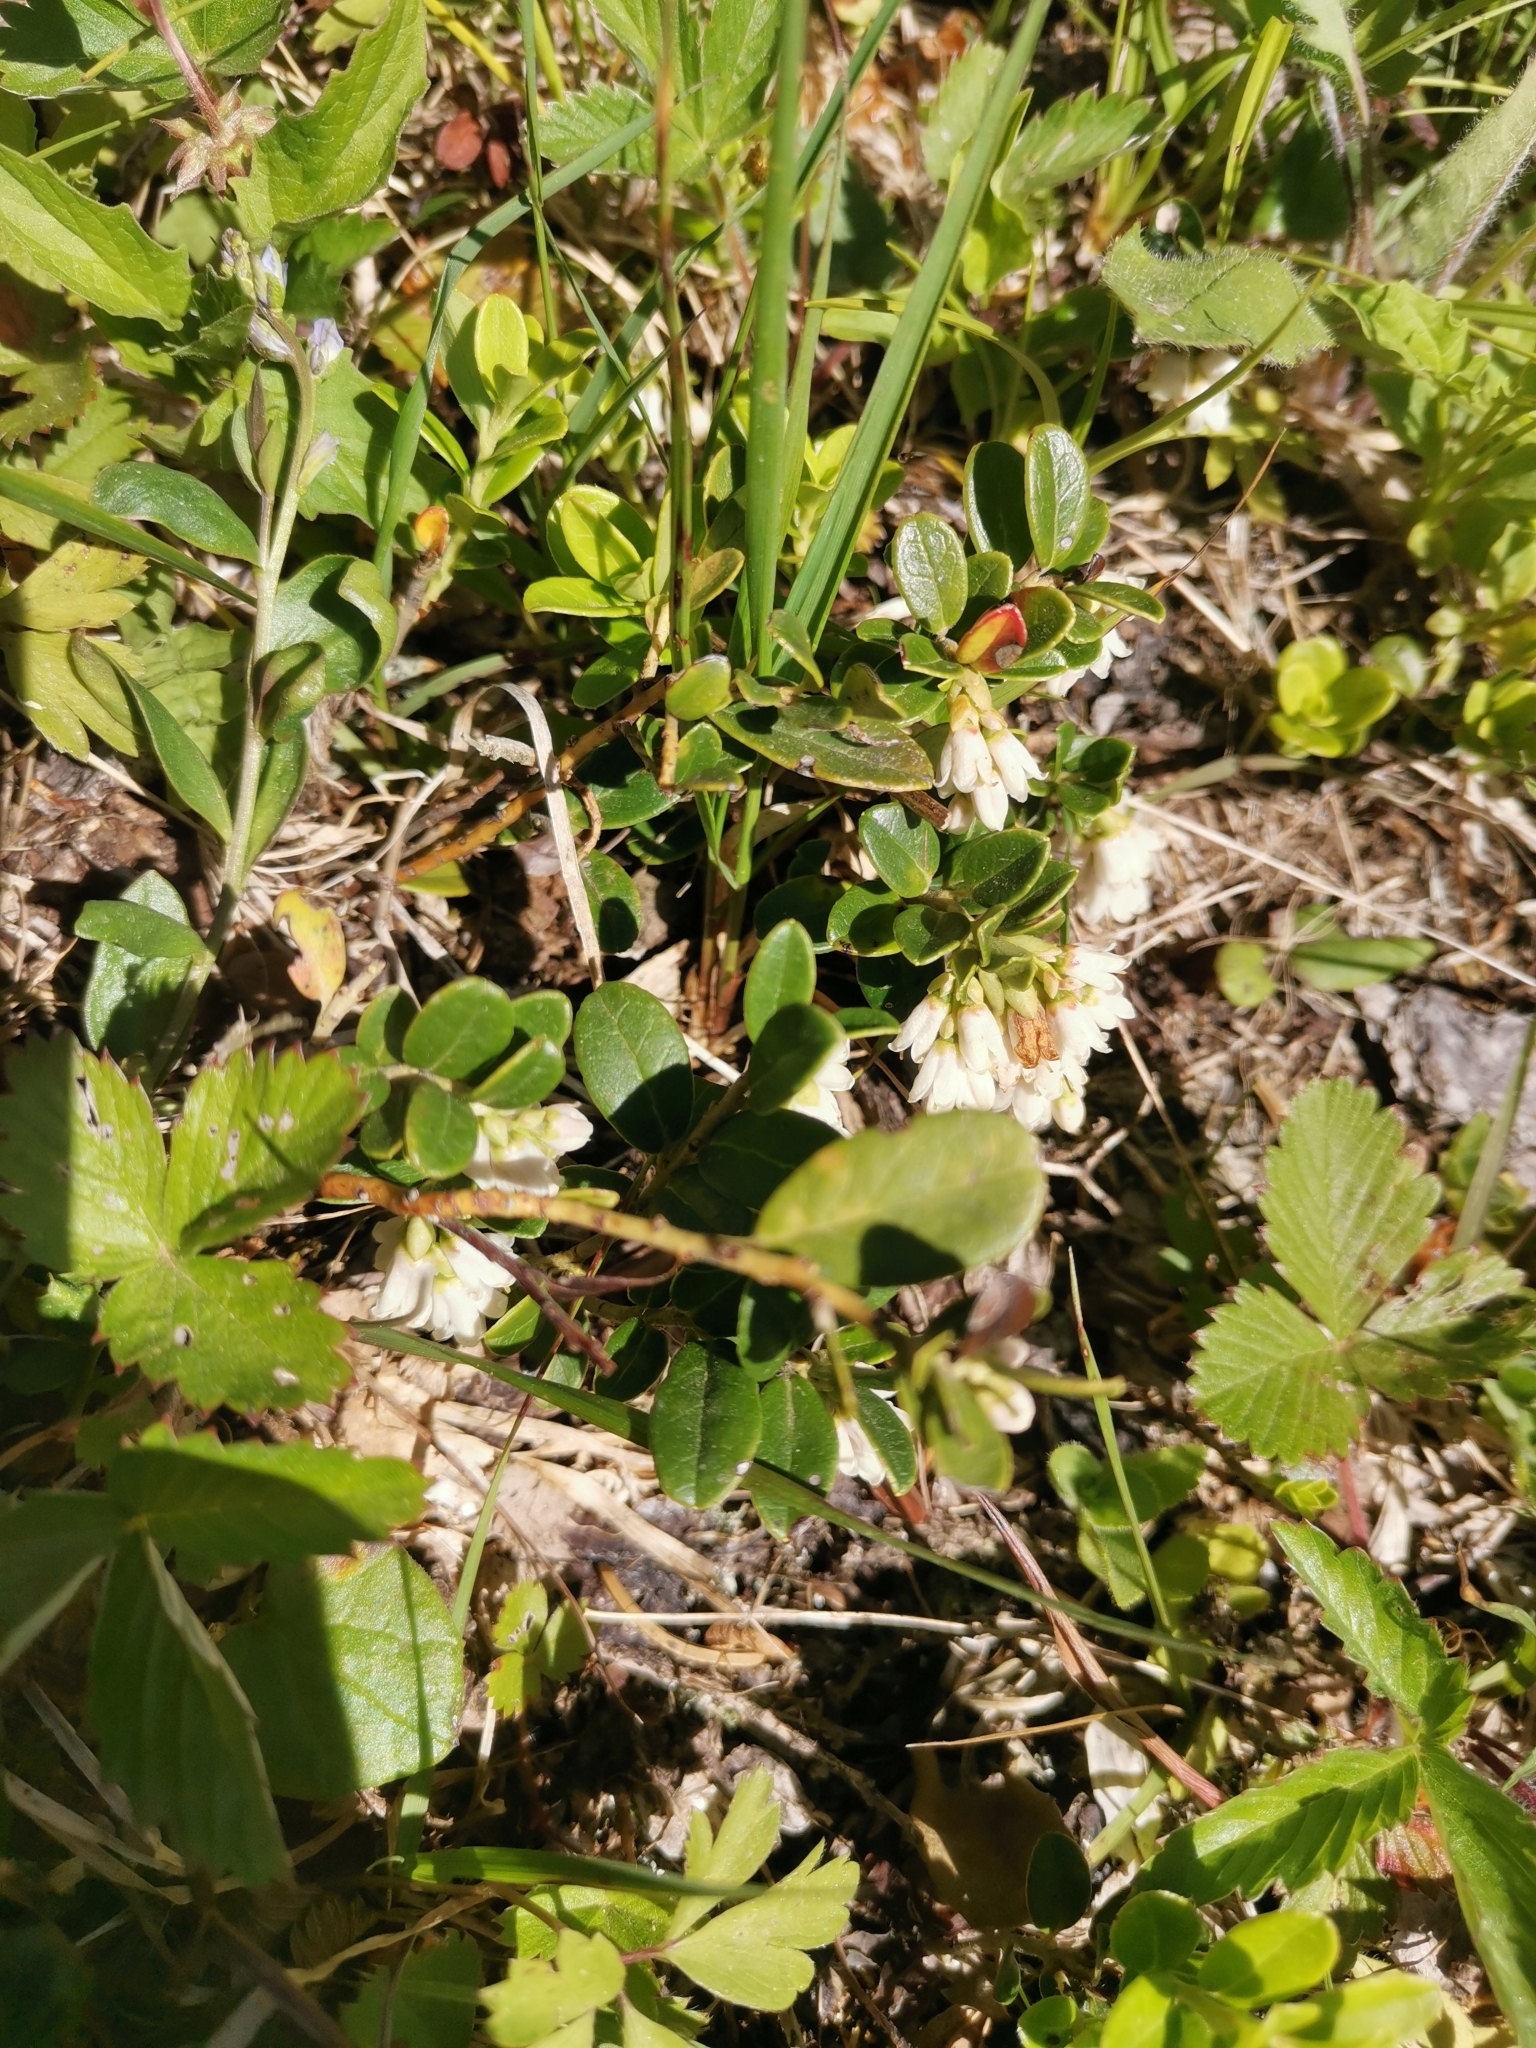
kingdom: Plantae
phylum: Tracheophyta
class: Magnoliopsida
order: Ericales
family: Ericaceae
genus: Vaccinium
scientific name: Vaccinium vitis-idaea
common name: Cowberry
